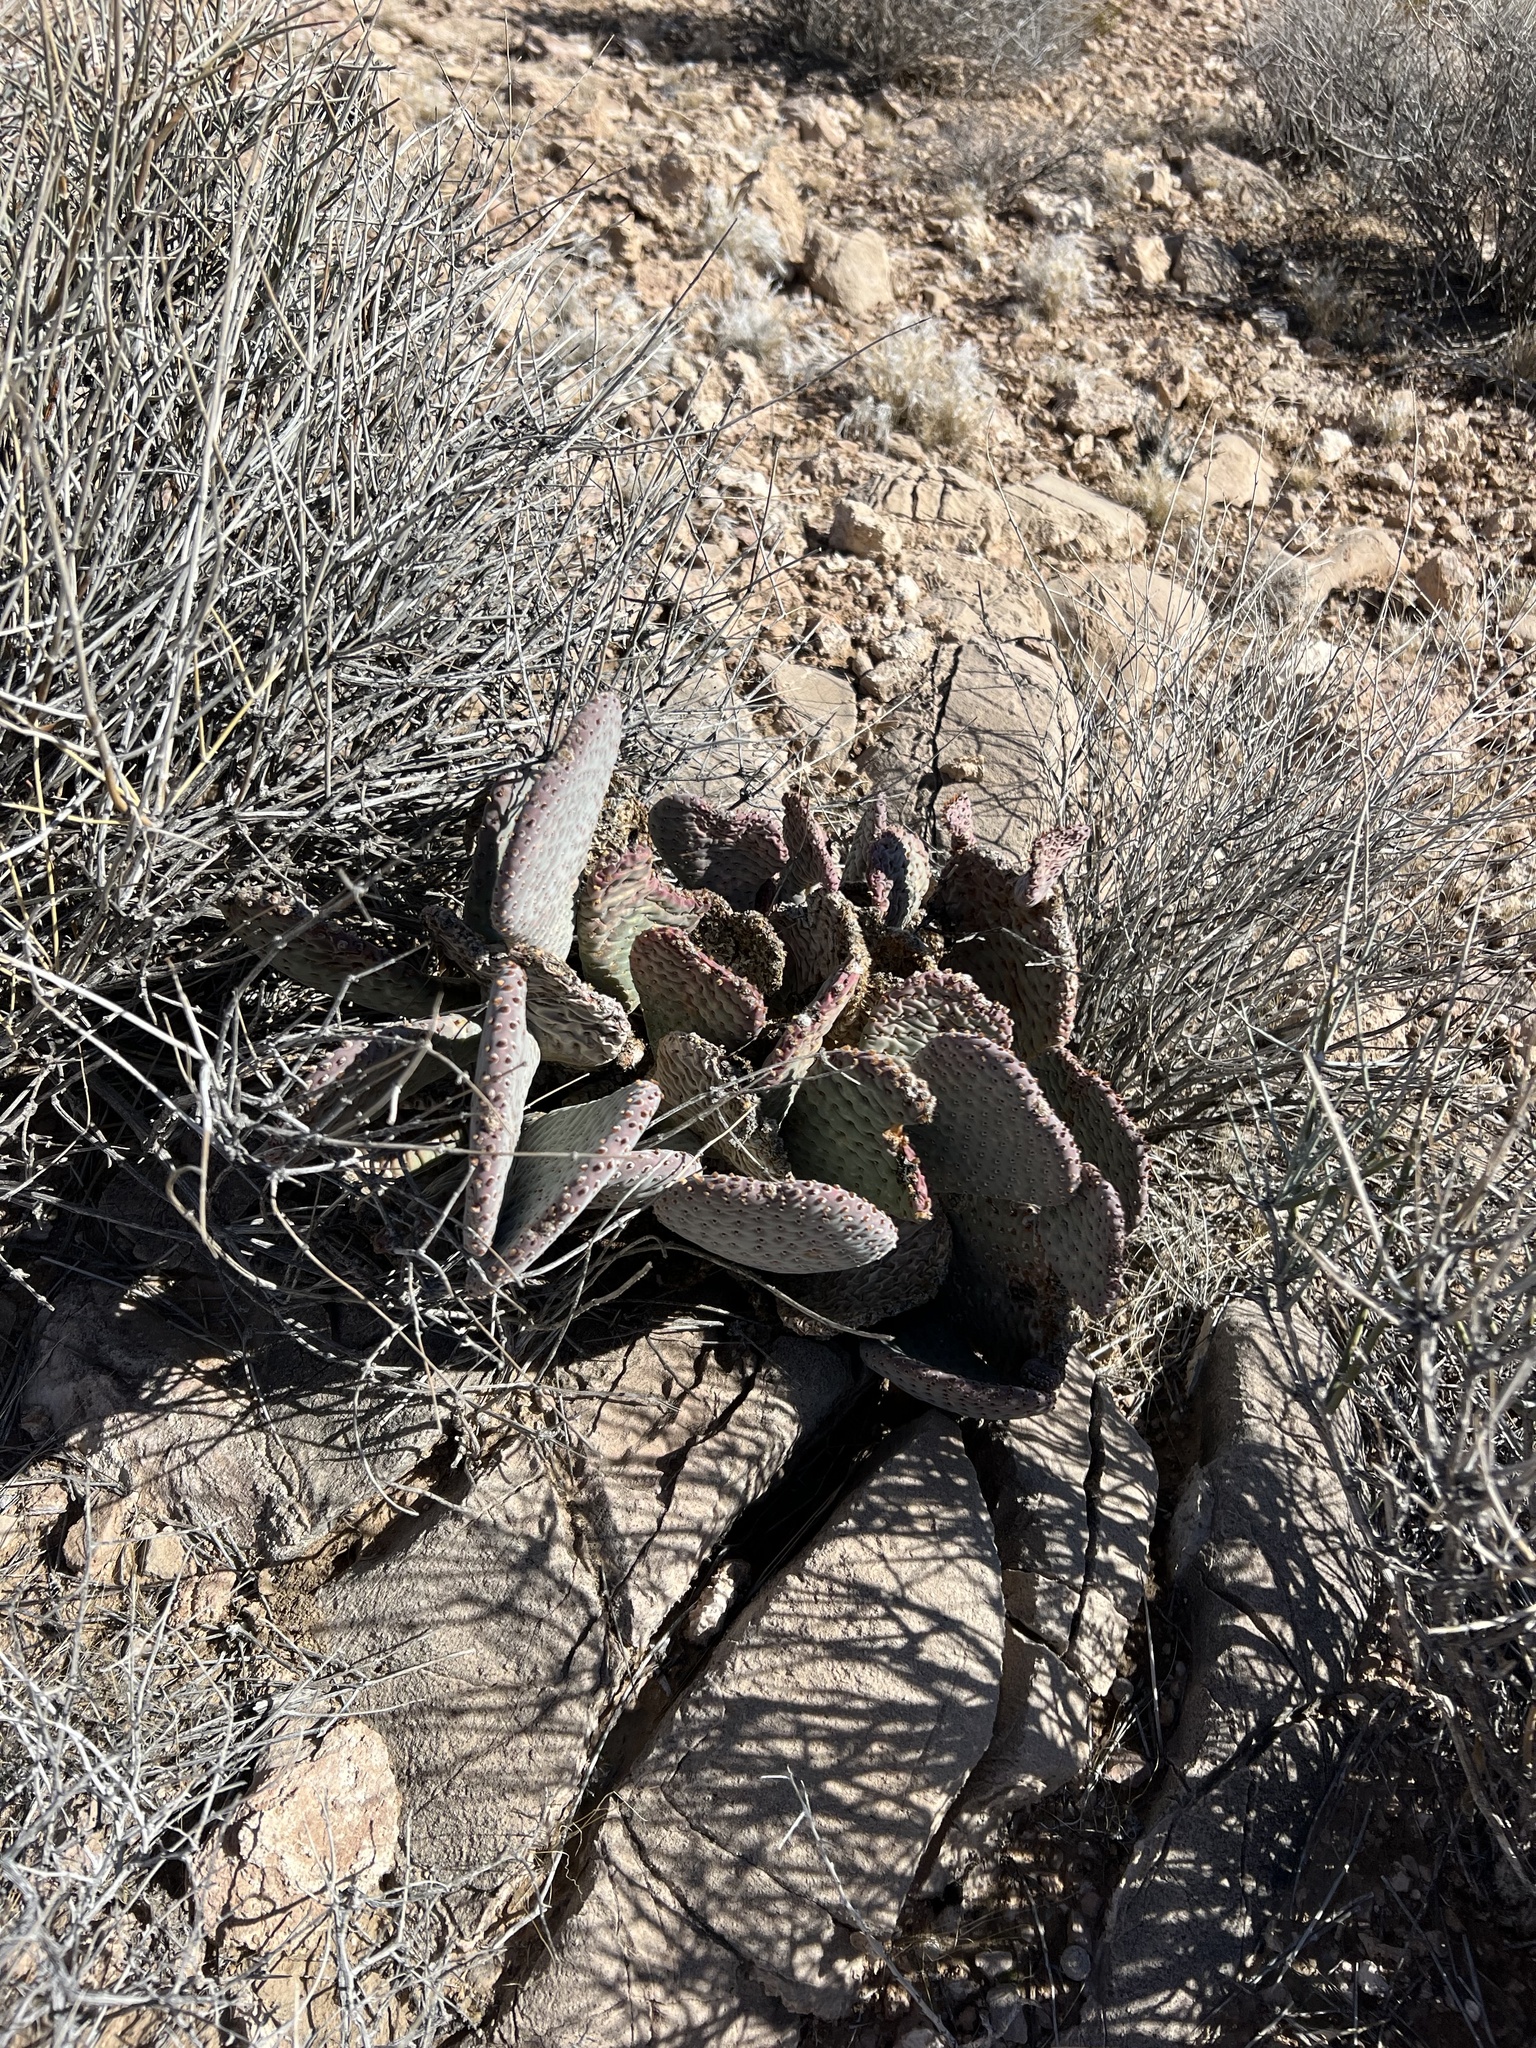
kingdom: Plantae
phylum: Tracheophyta
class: Magnoliopsida
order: Caryophyllales
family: Cactaceae
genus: Opuntia
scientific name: Opuntia basilaris
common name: Beavertail prickly-pear
